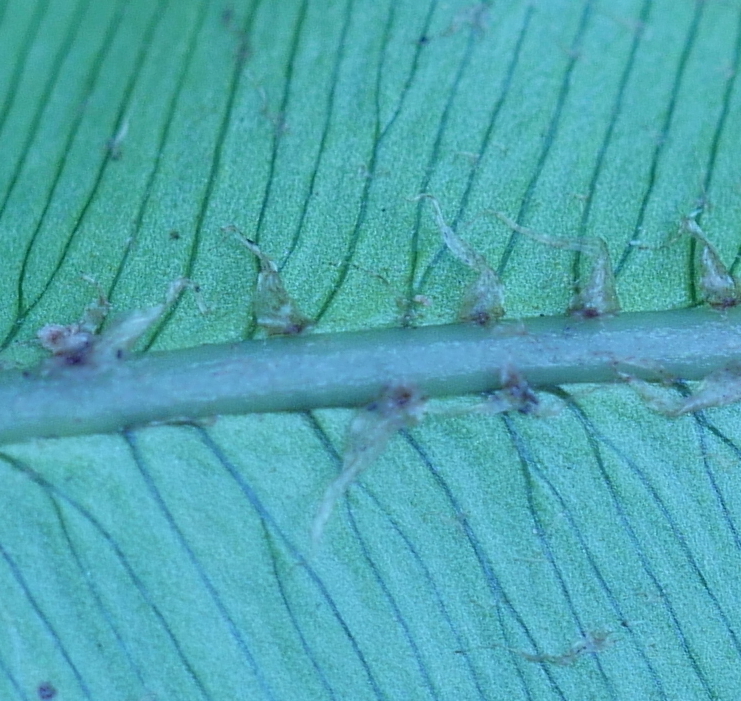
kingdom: Plantae
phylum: Tracheophyta
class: Polypodiopsida
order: Polypodiales
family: Blechnaceae
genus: Parablechnum
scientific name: Parablechnum novae-zelandiae
